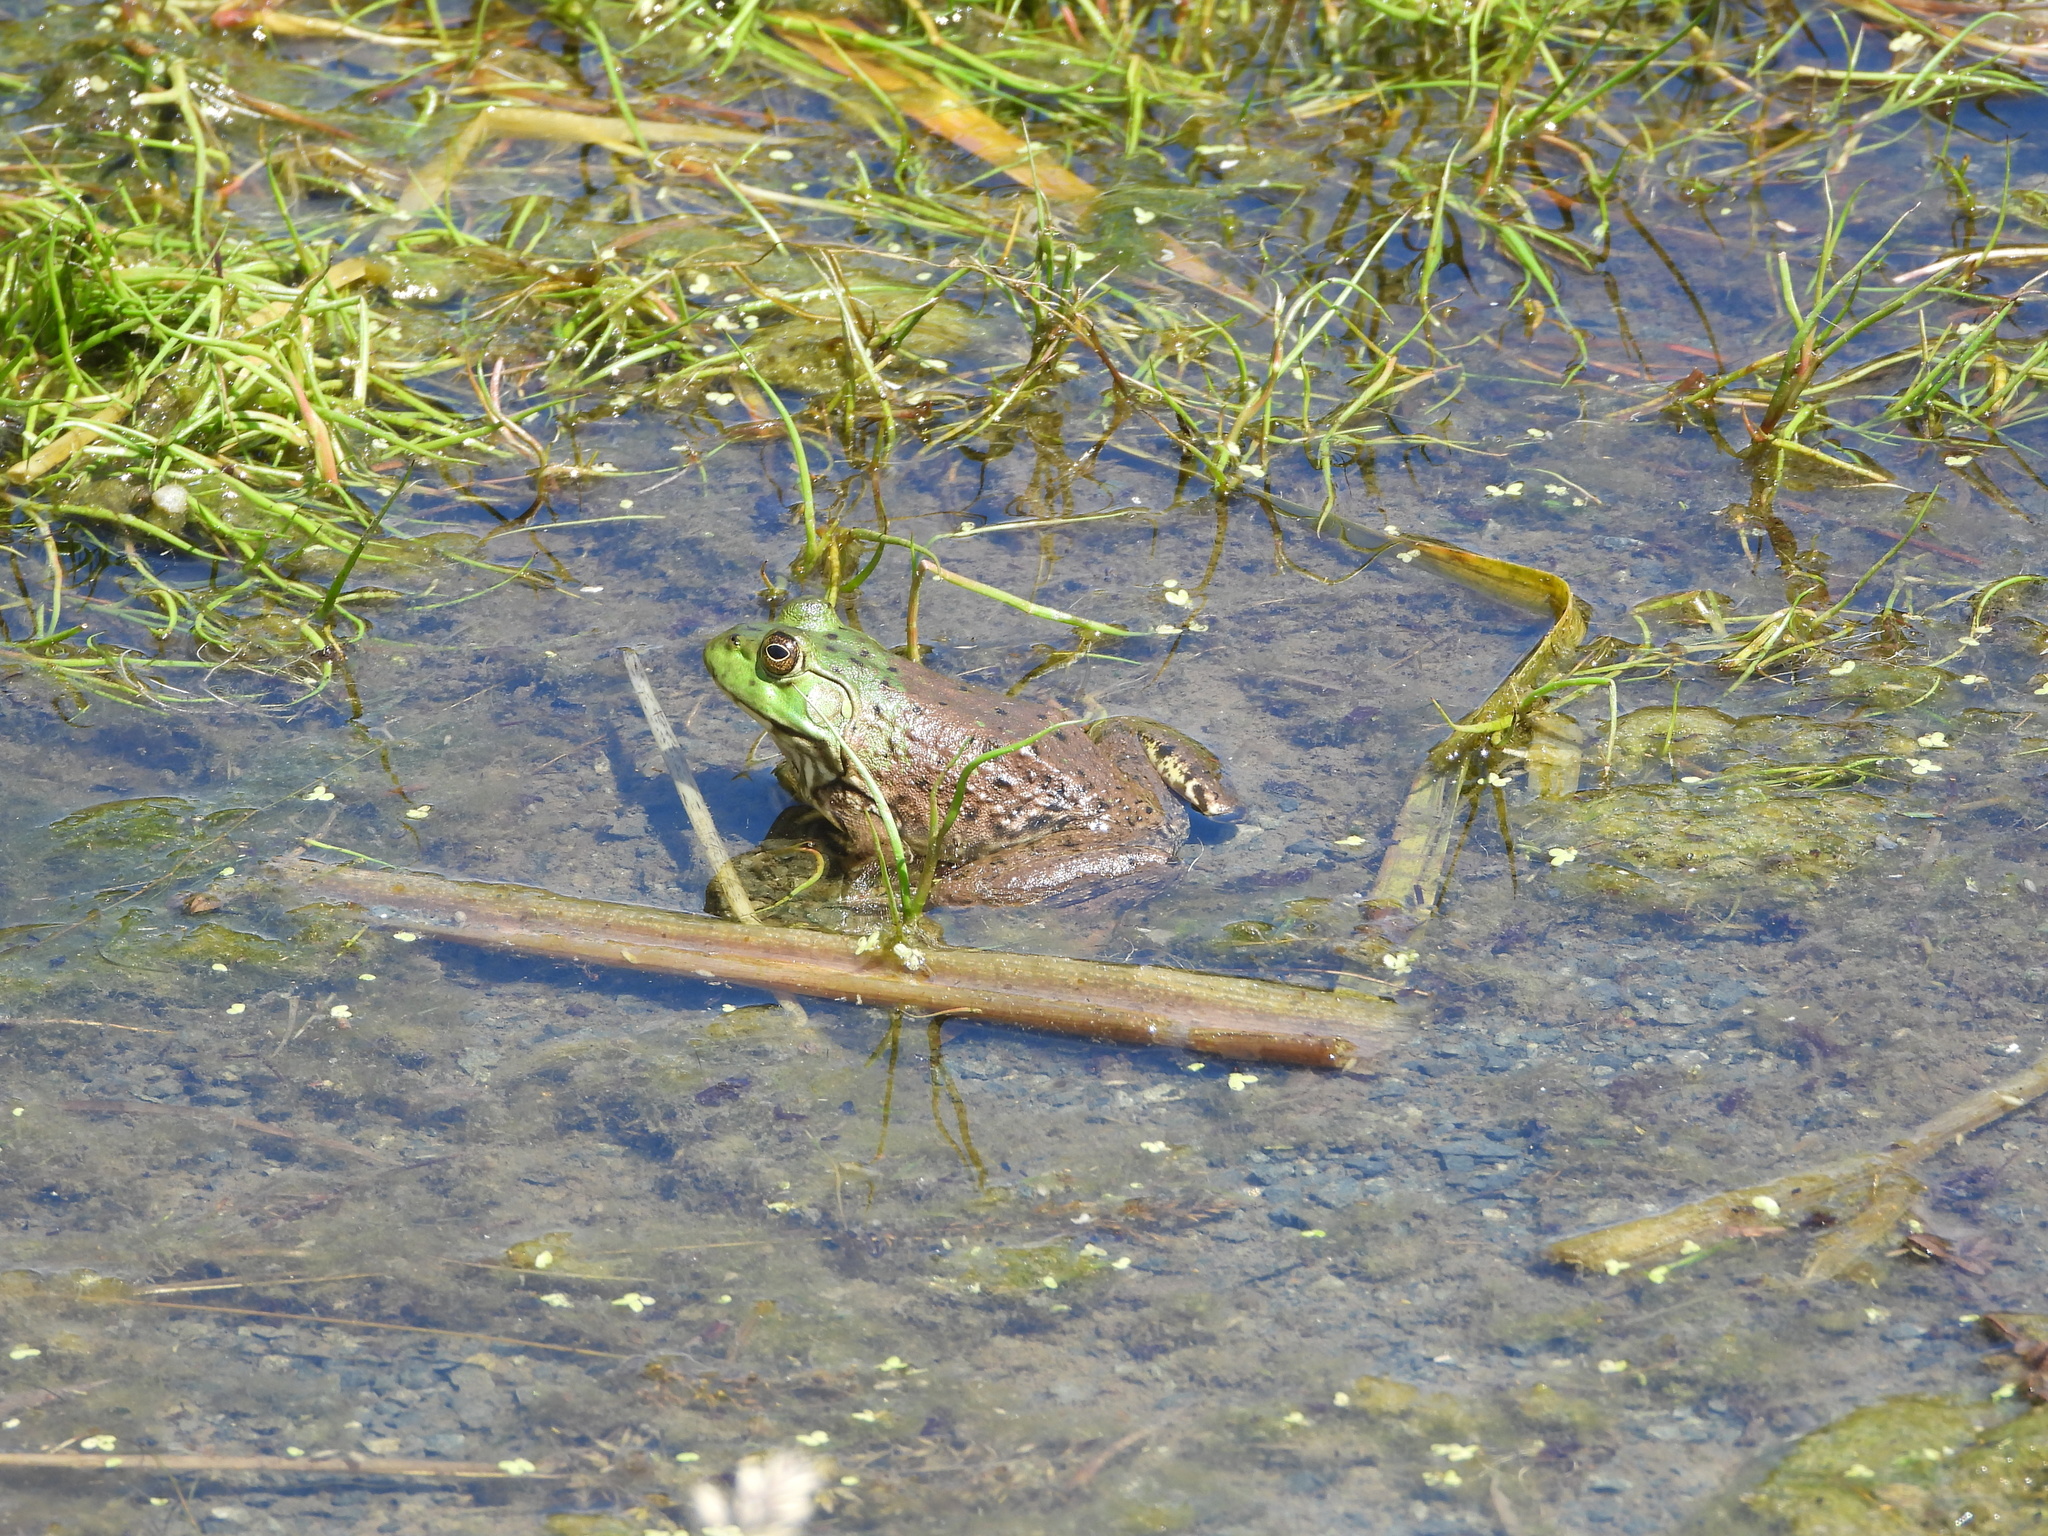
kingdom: Animalia
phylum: Chordata
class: Amphibia
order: Anura
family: Ranidae
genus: Lithobates
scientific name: Lithobates catesbeianus
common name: American bullfrog
